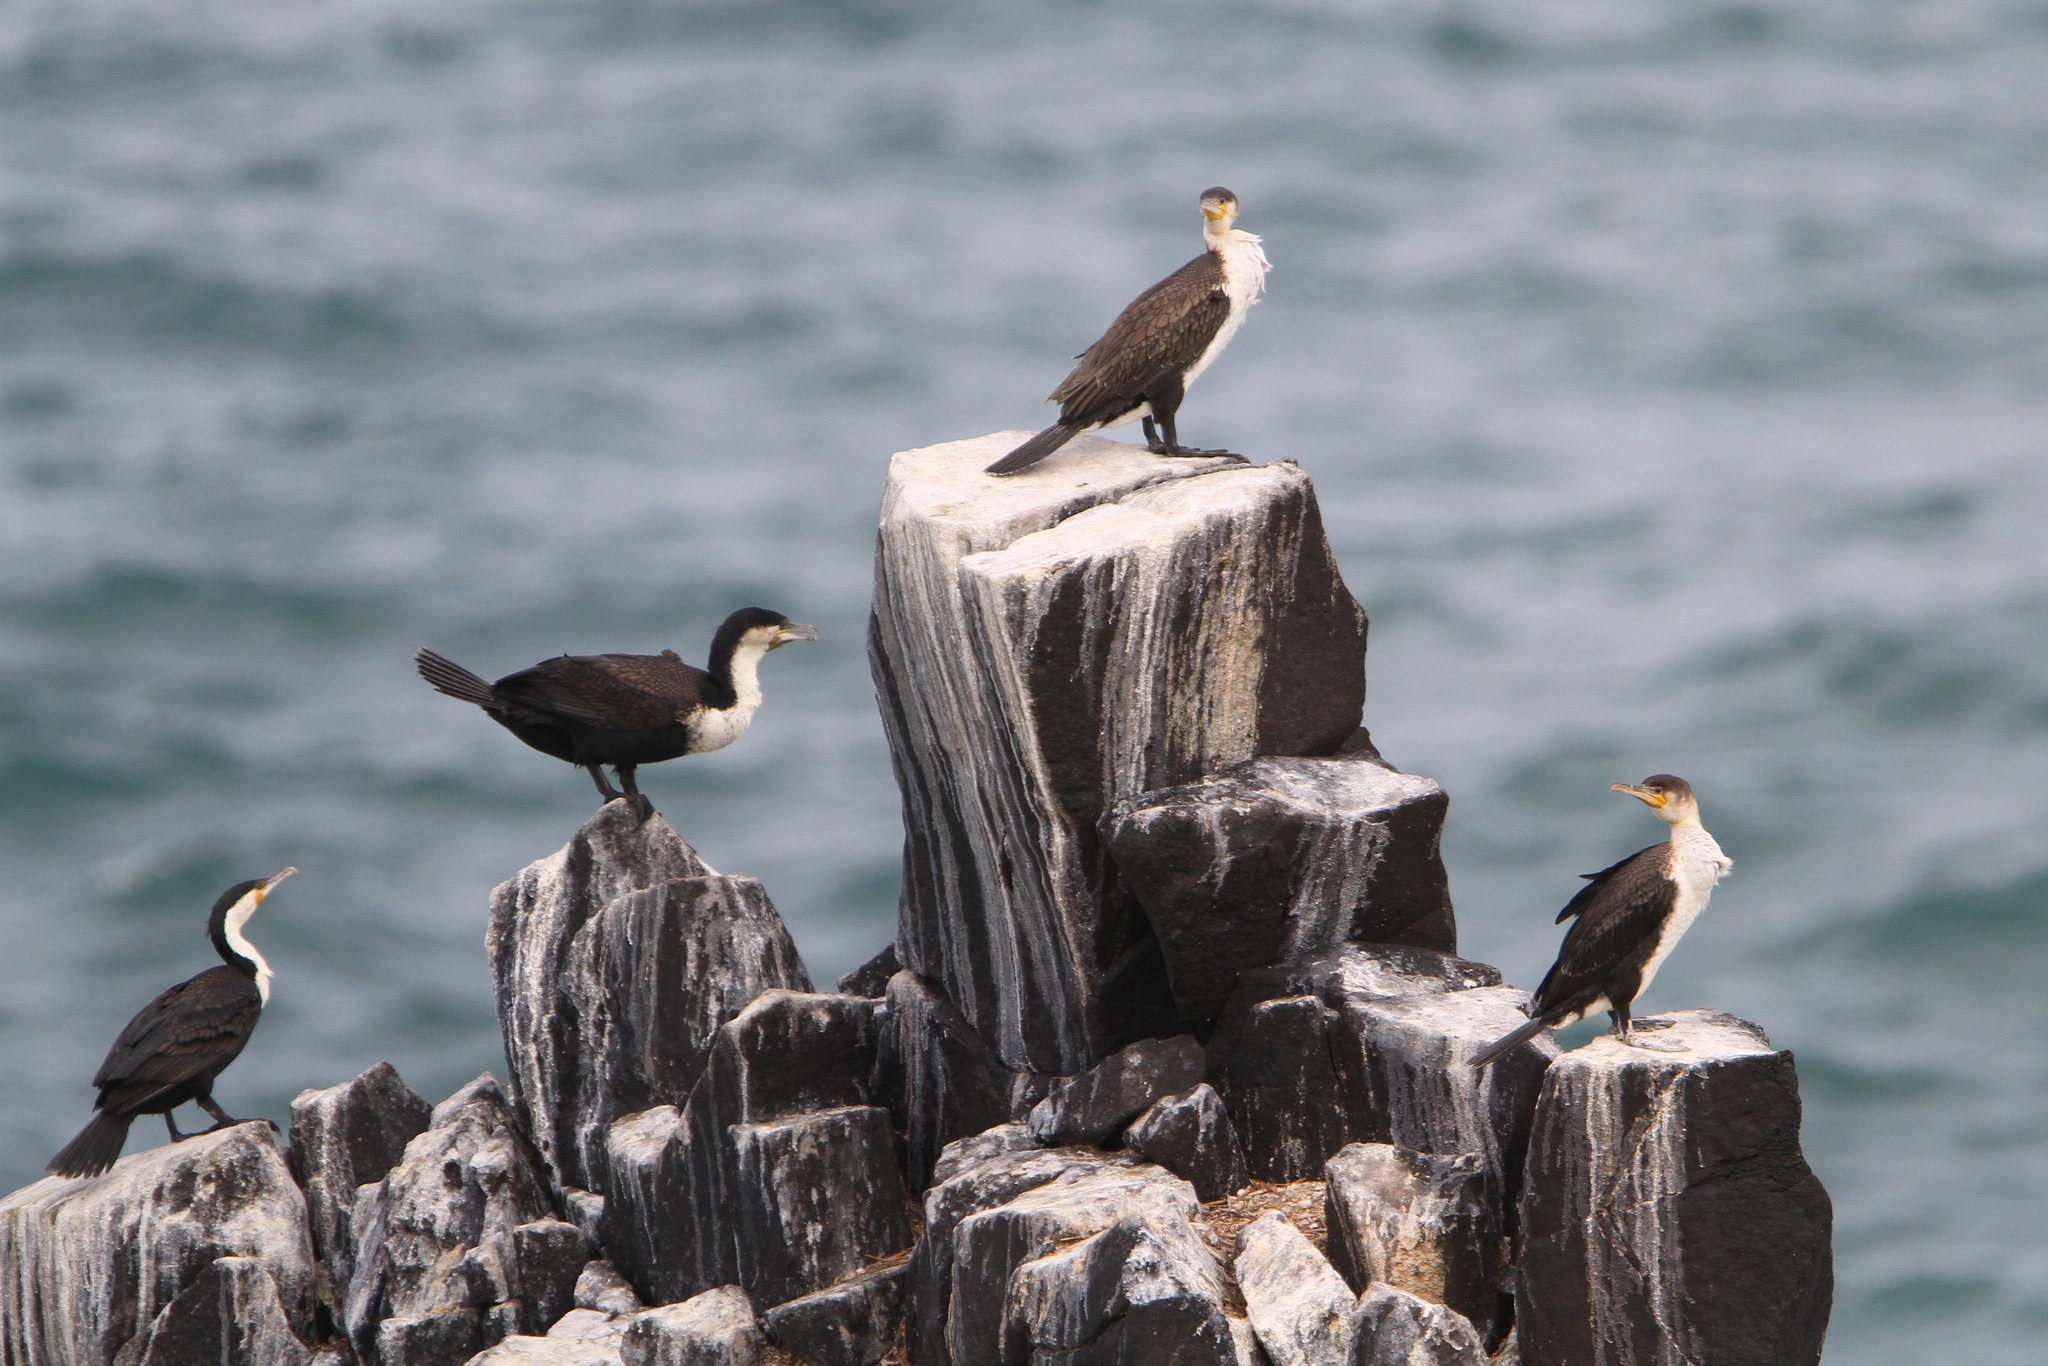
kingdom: Animalia
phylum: Chordata
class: Aves
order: Suliformes
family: Phalacrocoracidae
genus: Phalacrocorax
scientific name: Phalacrocorax carbo
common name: Great cormorant
